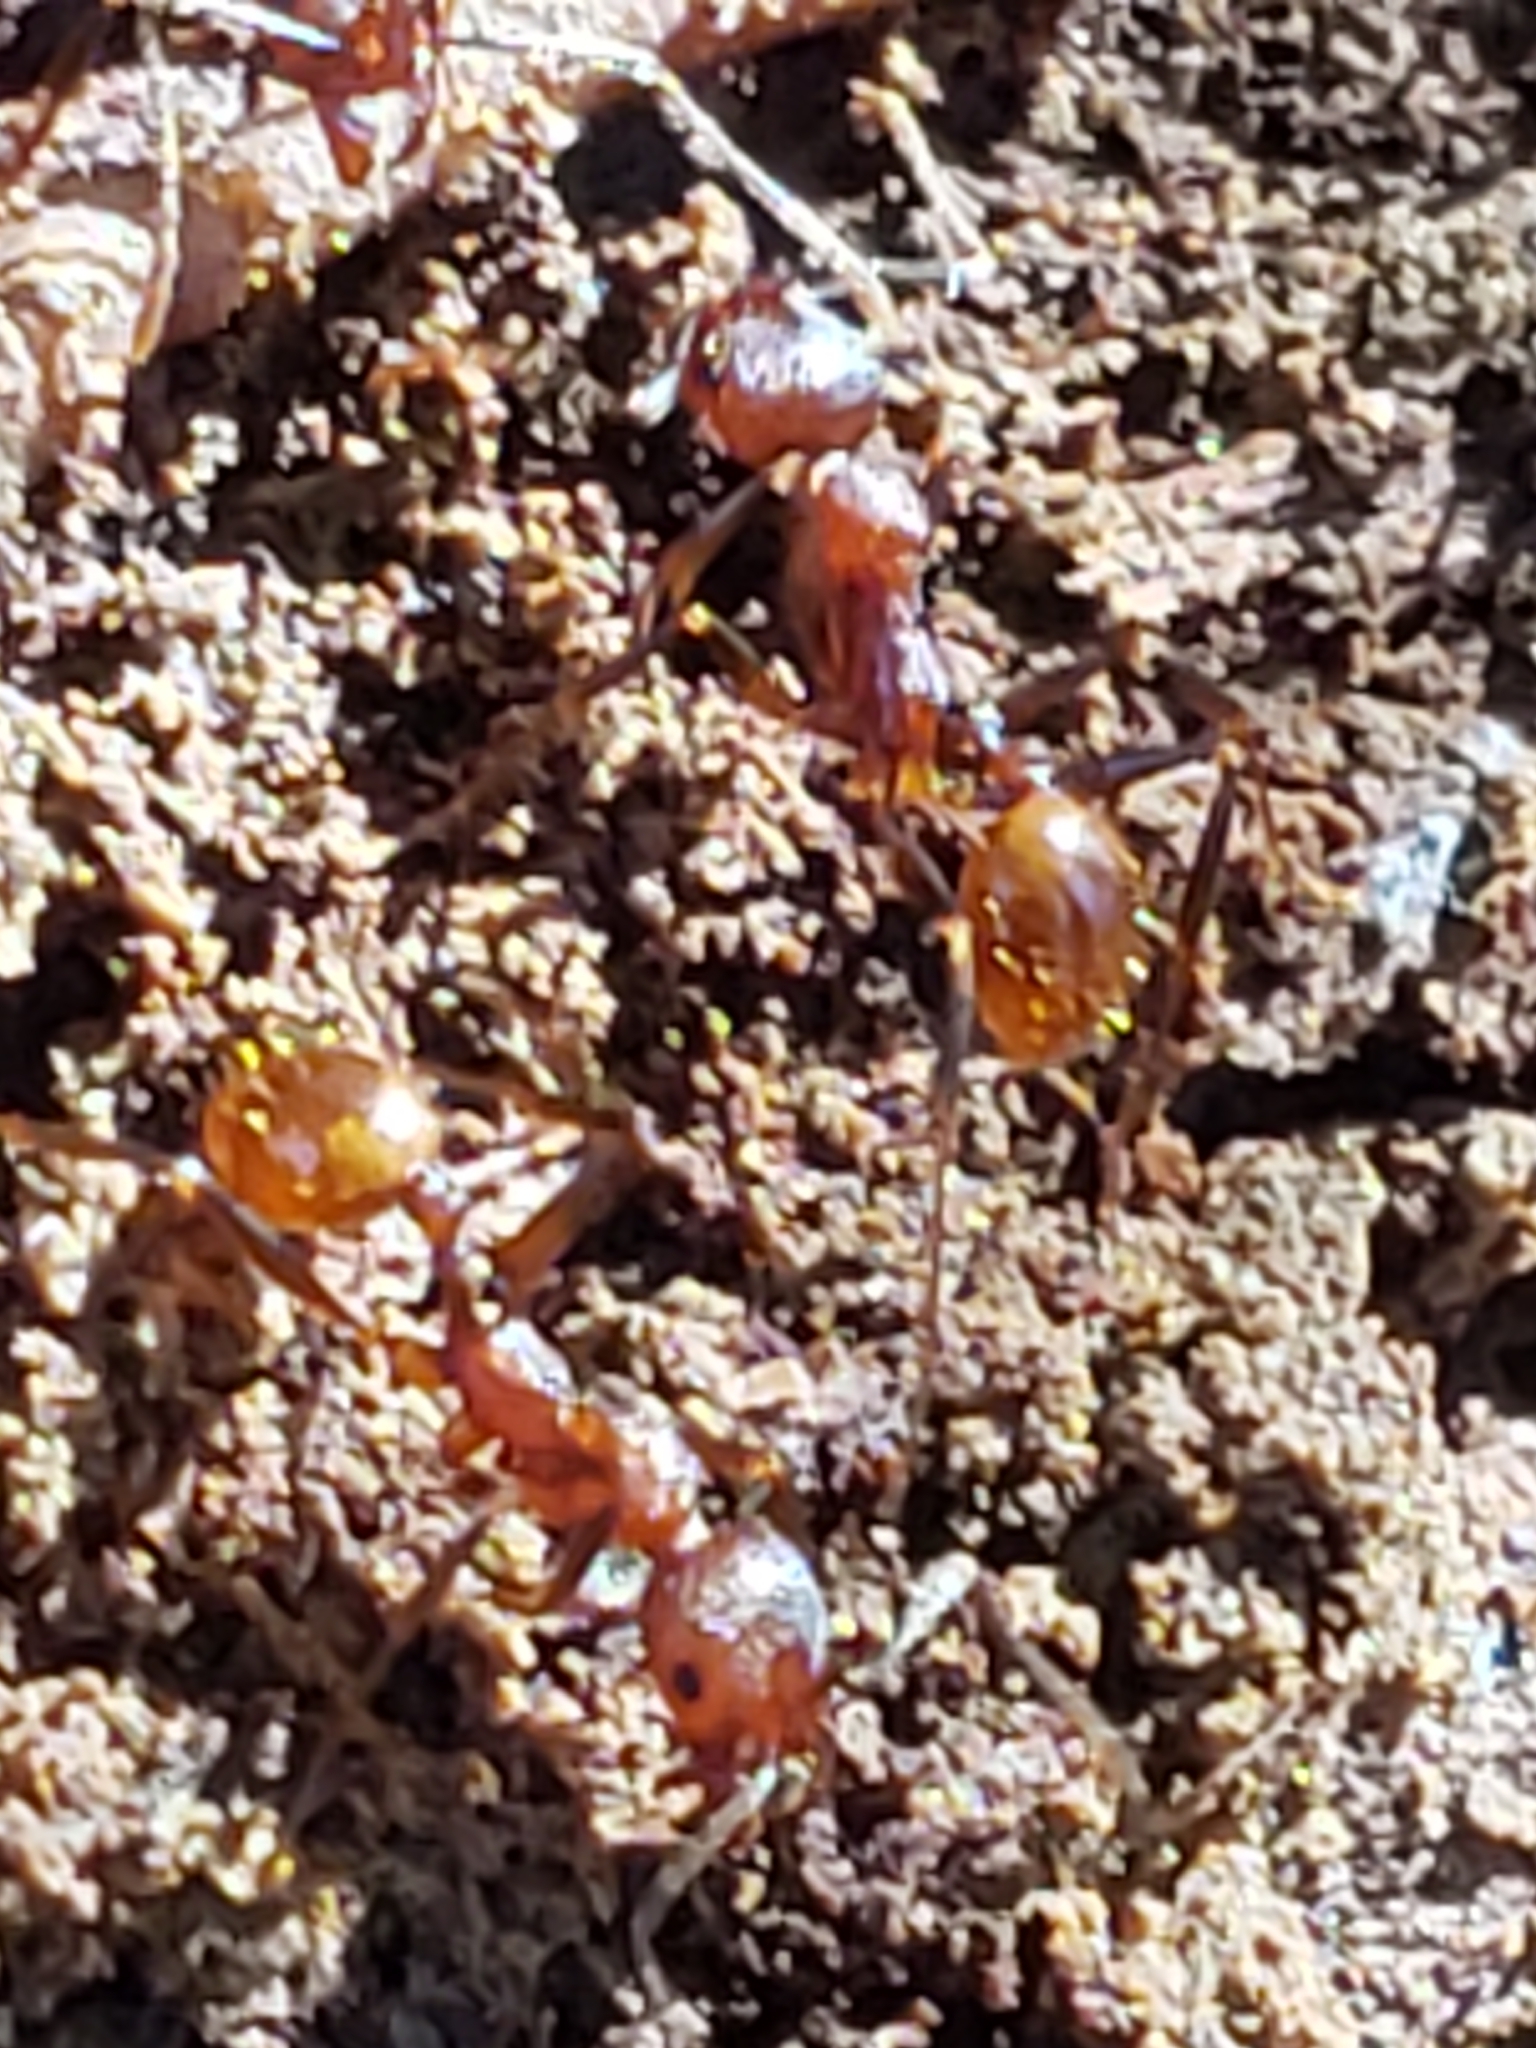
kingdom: Animalia
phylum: Arthropoda
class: Insecta
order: Hymenoptera
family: Formicidae
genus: Aphaenogaster
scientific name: Aphaenogaster fulva
